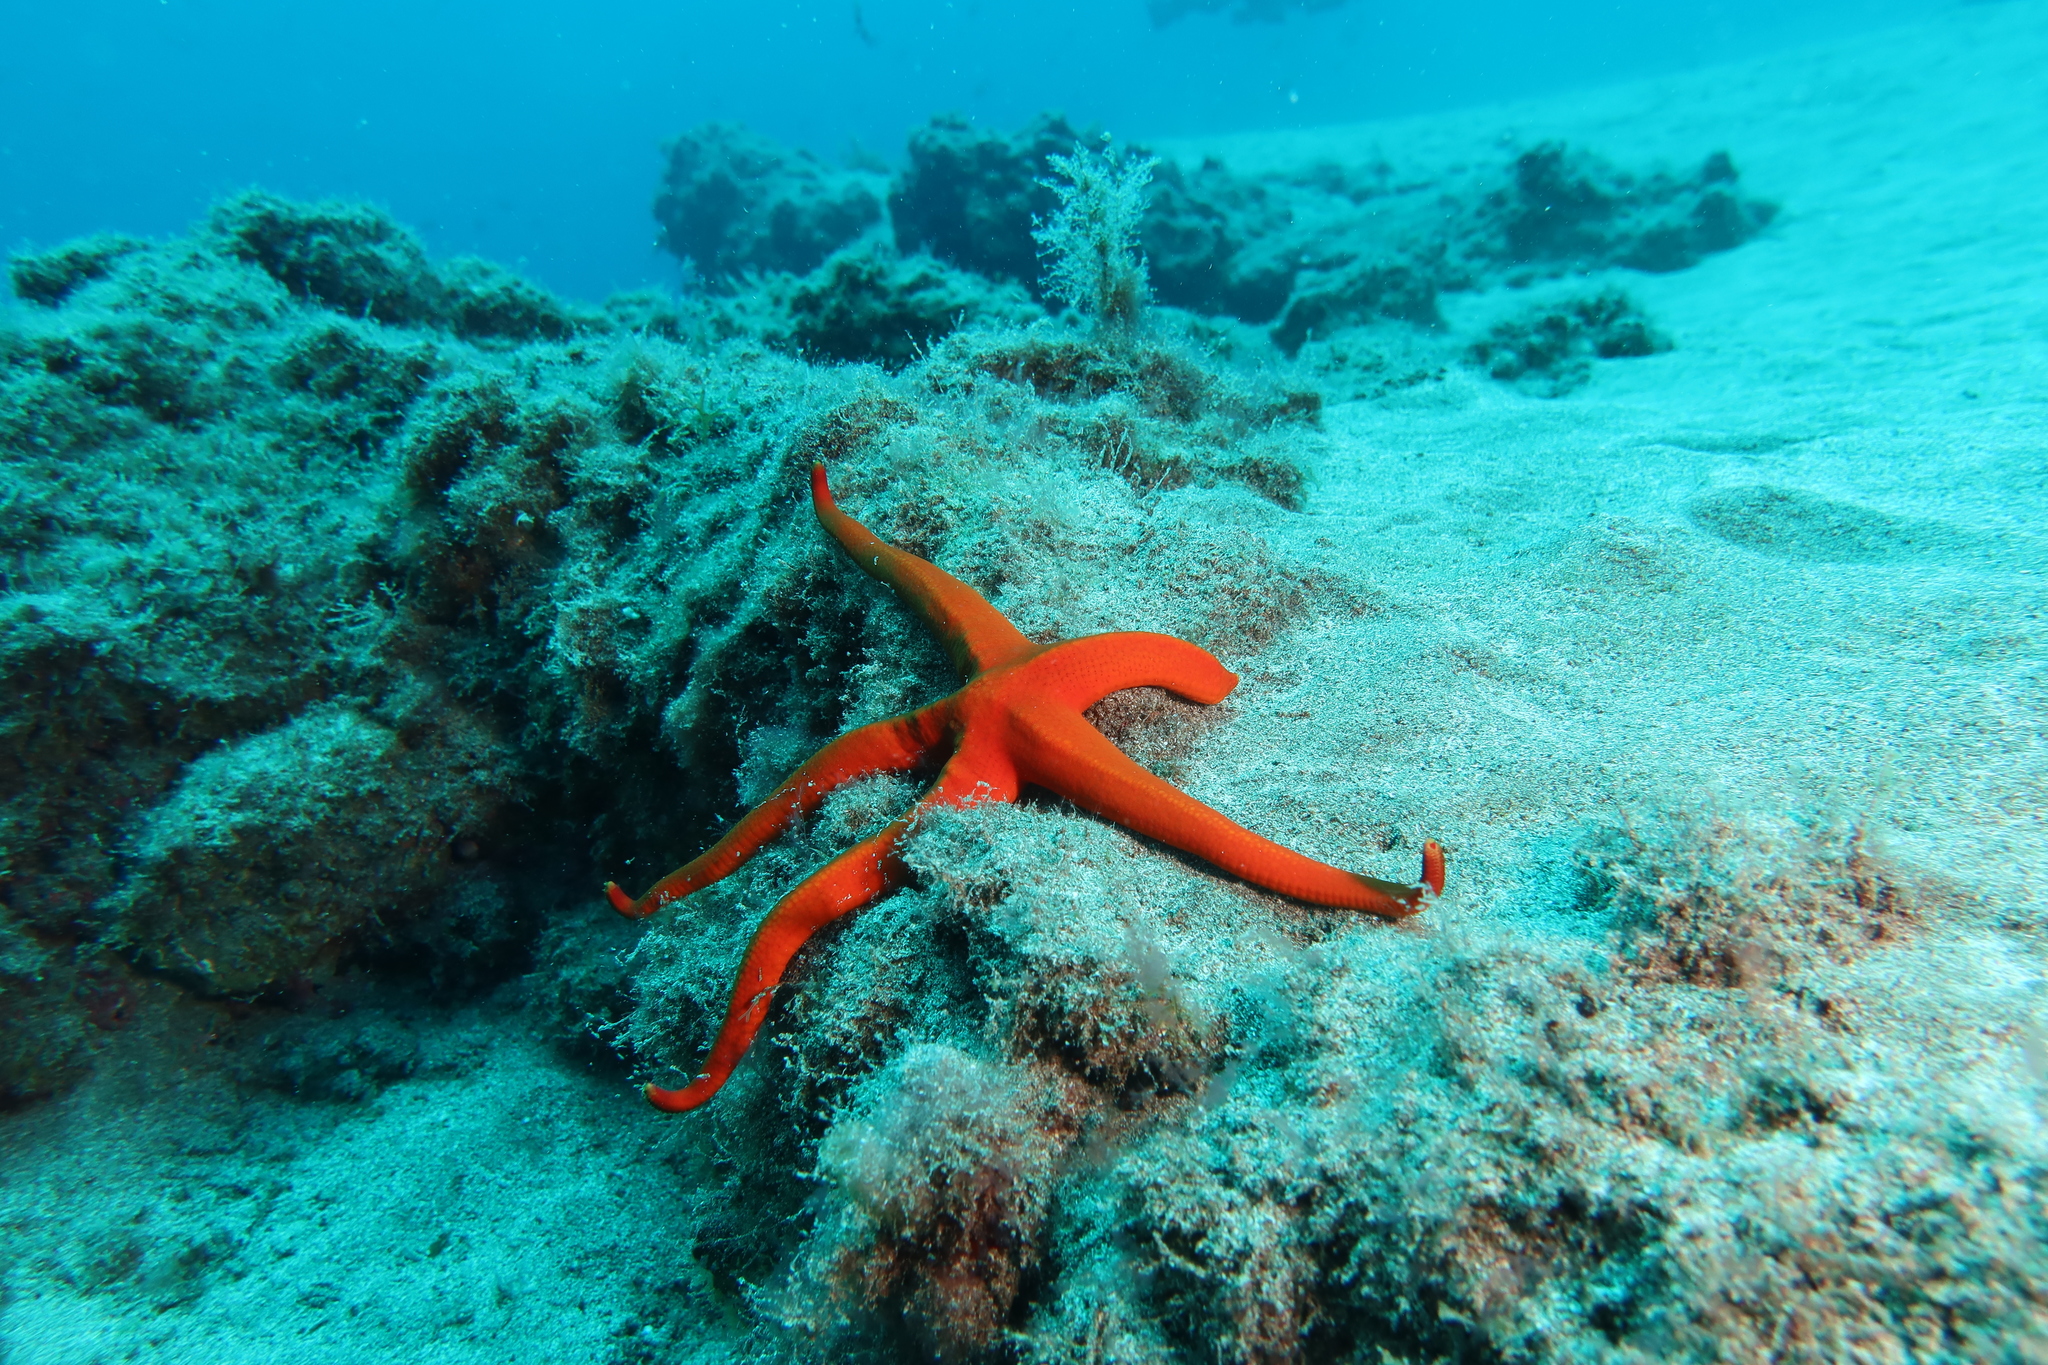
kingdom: Animalia
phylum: Echinodermata
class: Asteroidea
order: Valvatida
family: Ophidiasteridae
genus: Narcissia
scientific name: Narcissia canariensis
